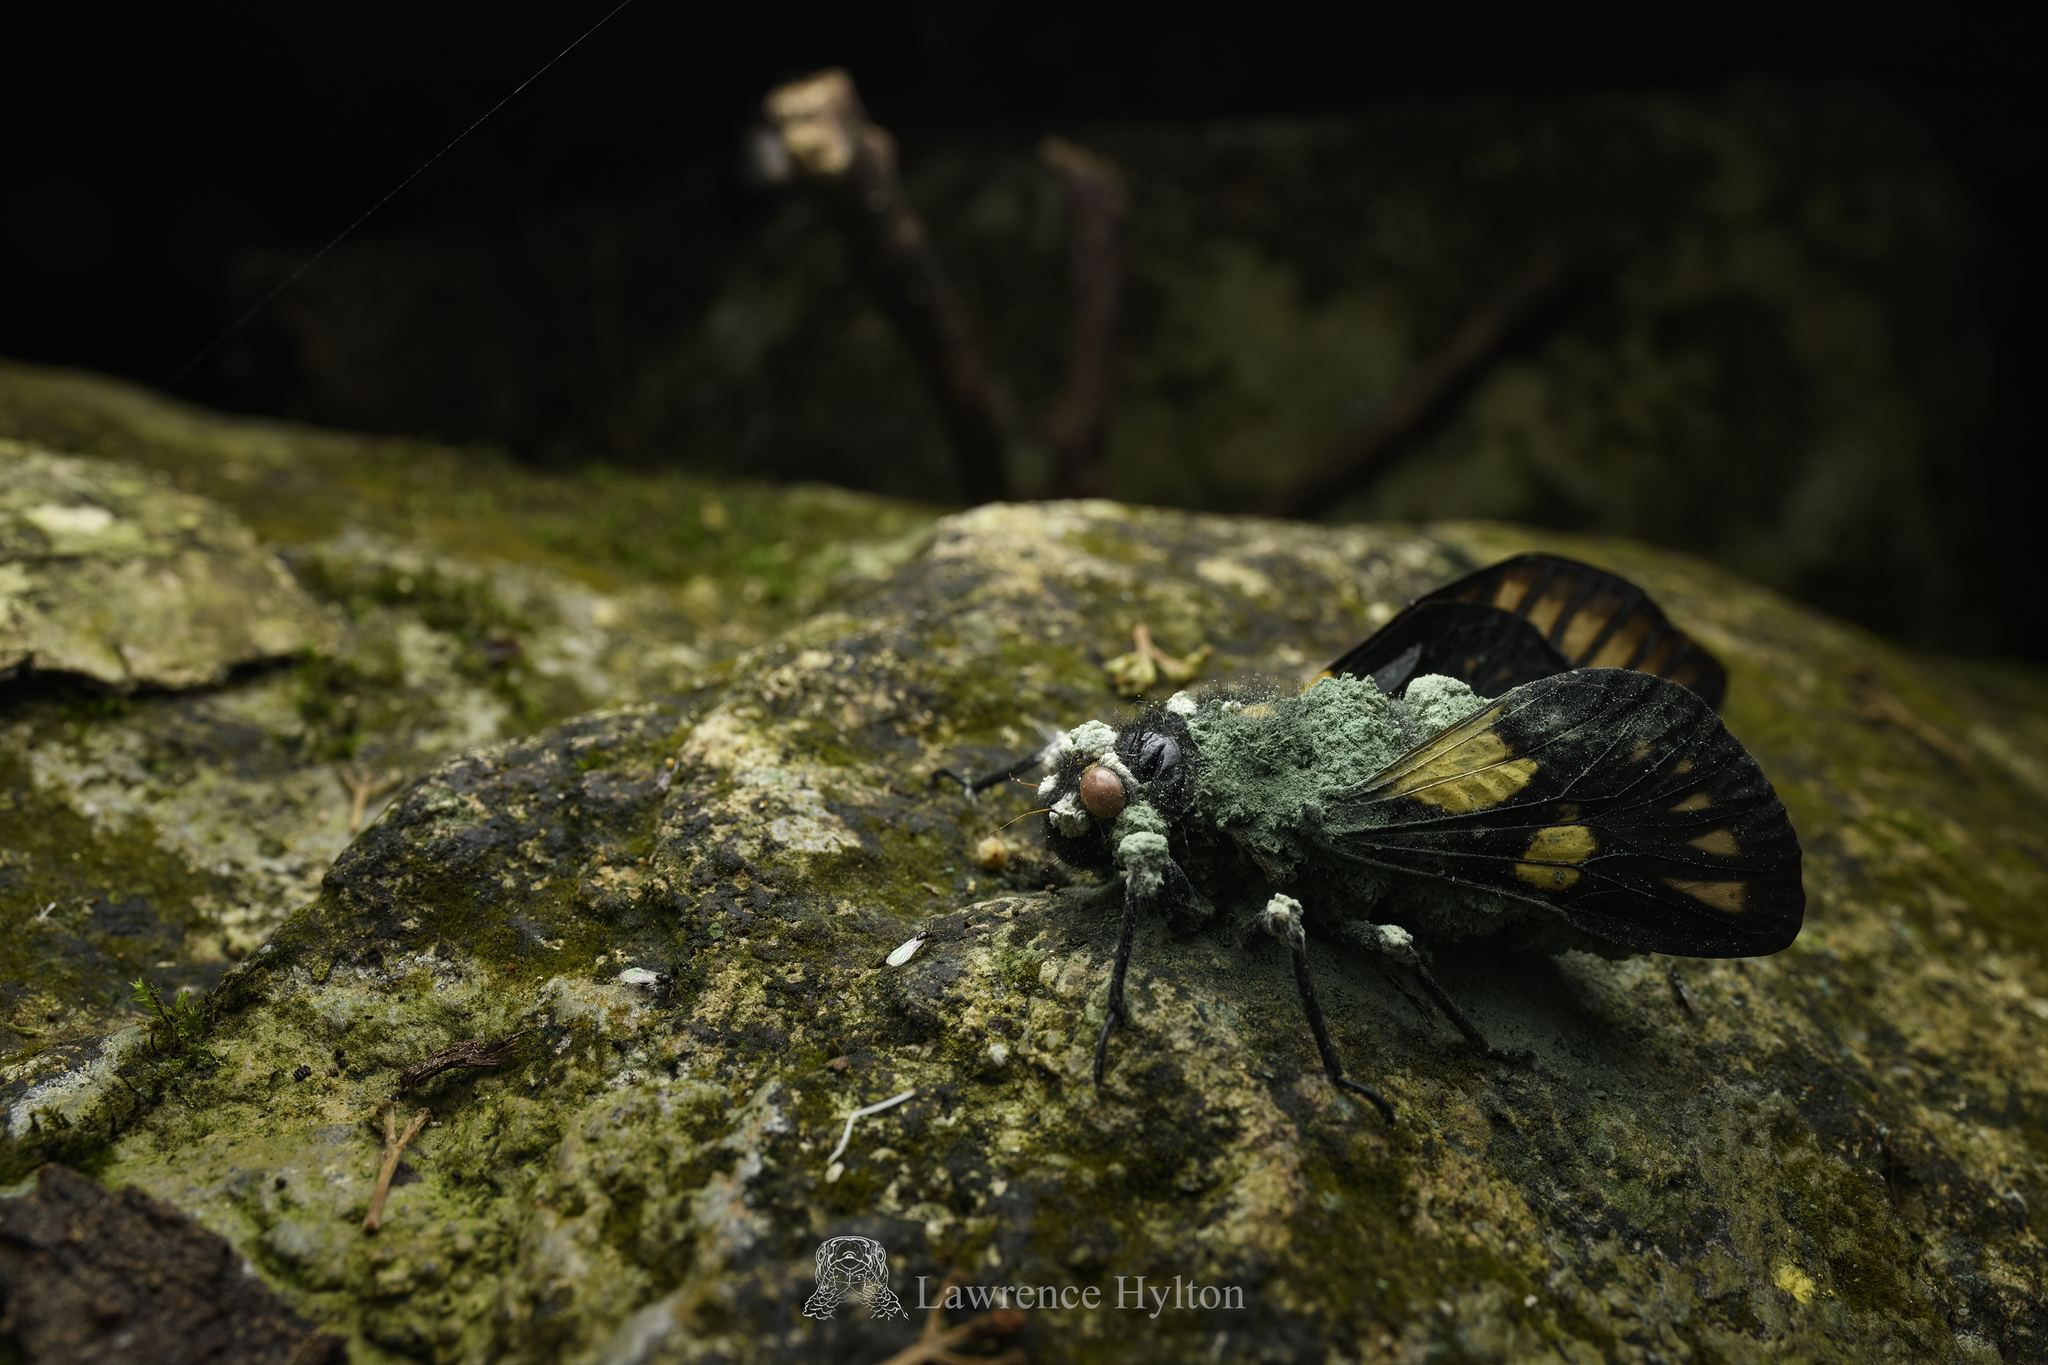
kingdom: Animalia
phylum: Arthropoda
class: Insecta
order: Hemiptera
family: Cicadidae
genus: Gaeana
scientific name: Gaeana maculata
